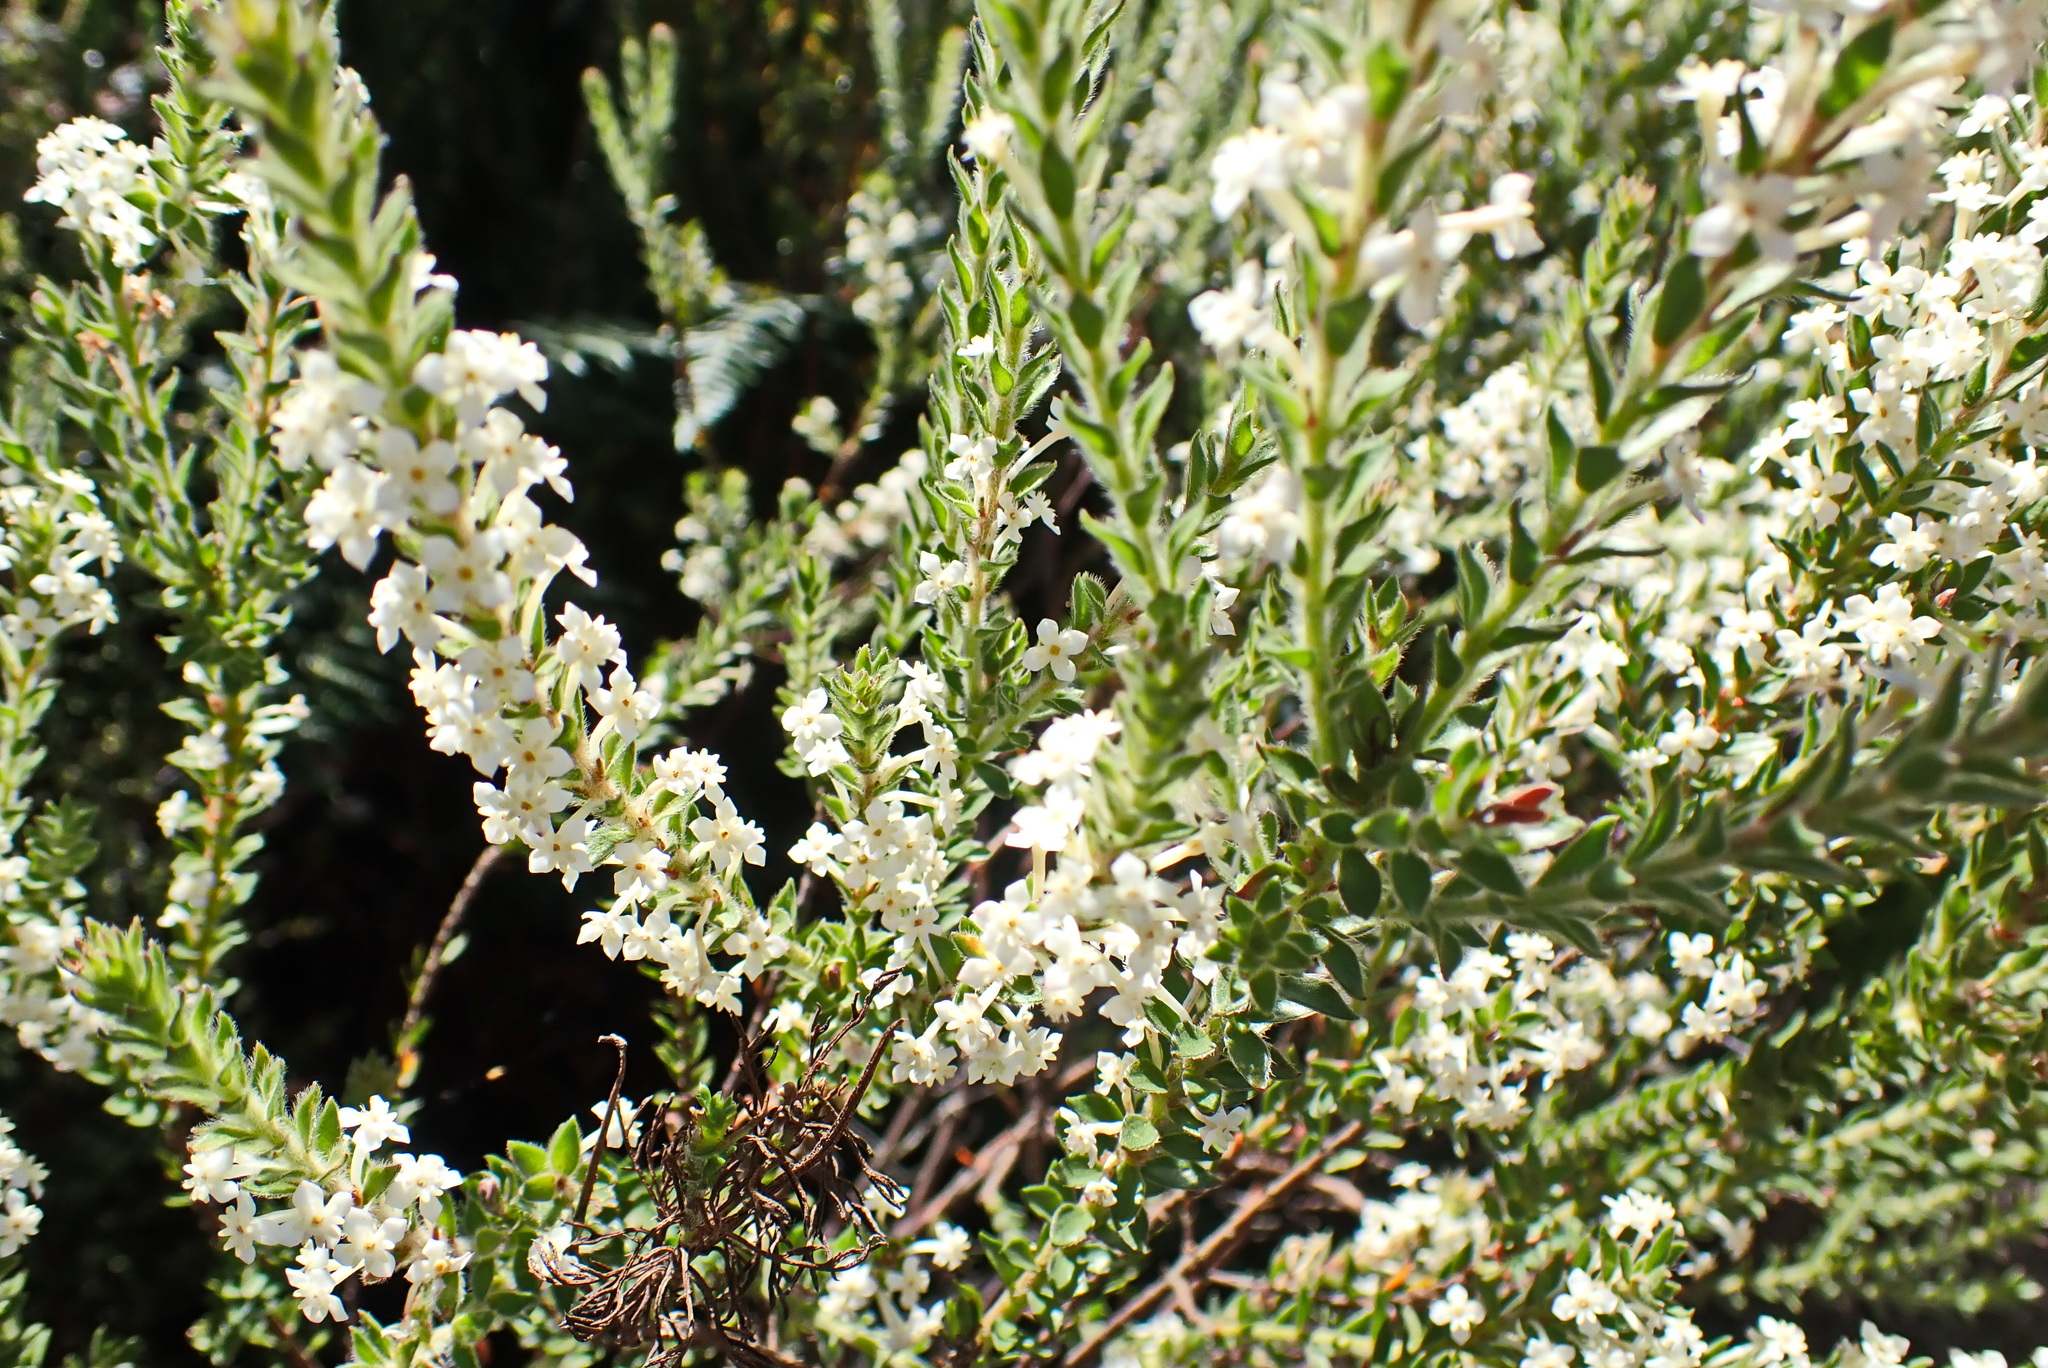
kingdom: Plantae
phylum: Tracheophyta
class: Magnoliopsida
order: Malvales
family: Thymelaeaceae
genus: Struthiola
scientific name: Struthiola hirsuta
